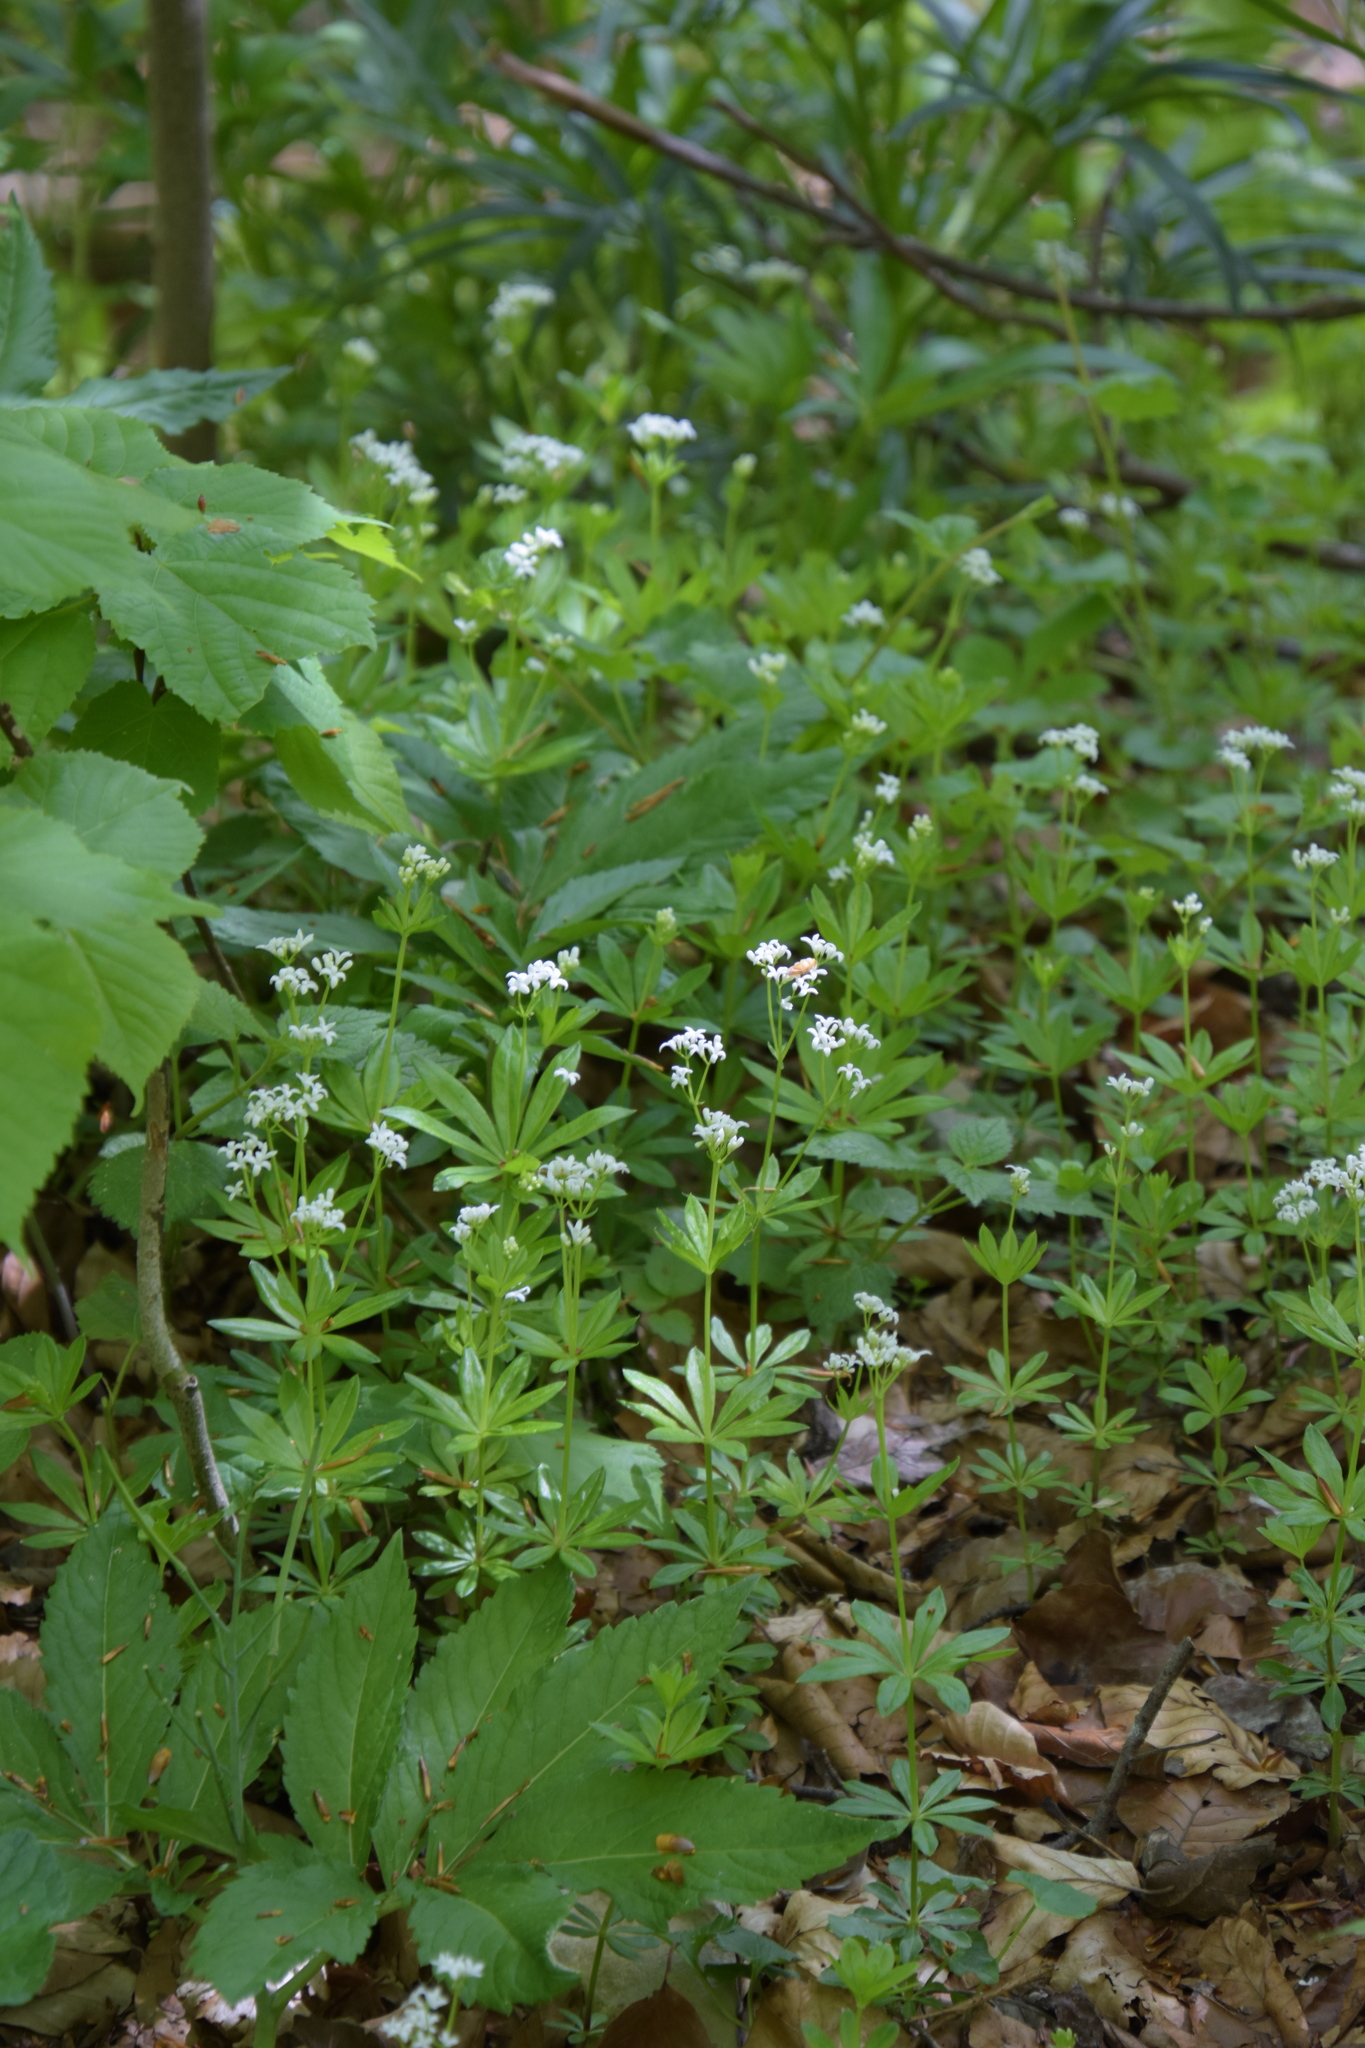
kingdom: Plantae
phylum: Tracheophyta
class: Magnoliopsida
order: Gentianales
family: Rubiaceae
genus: Galium
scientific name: Galium odoratum
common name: Sweet woodruff
